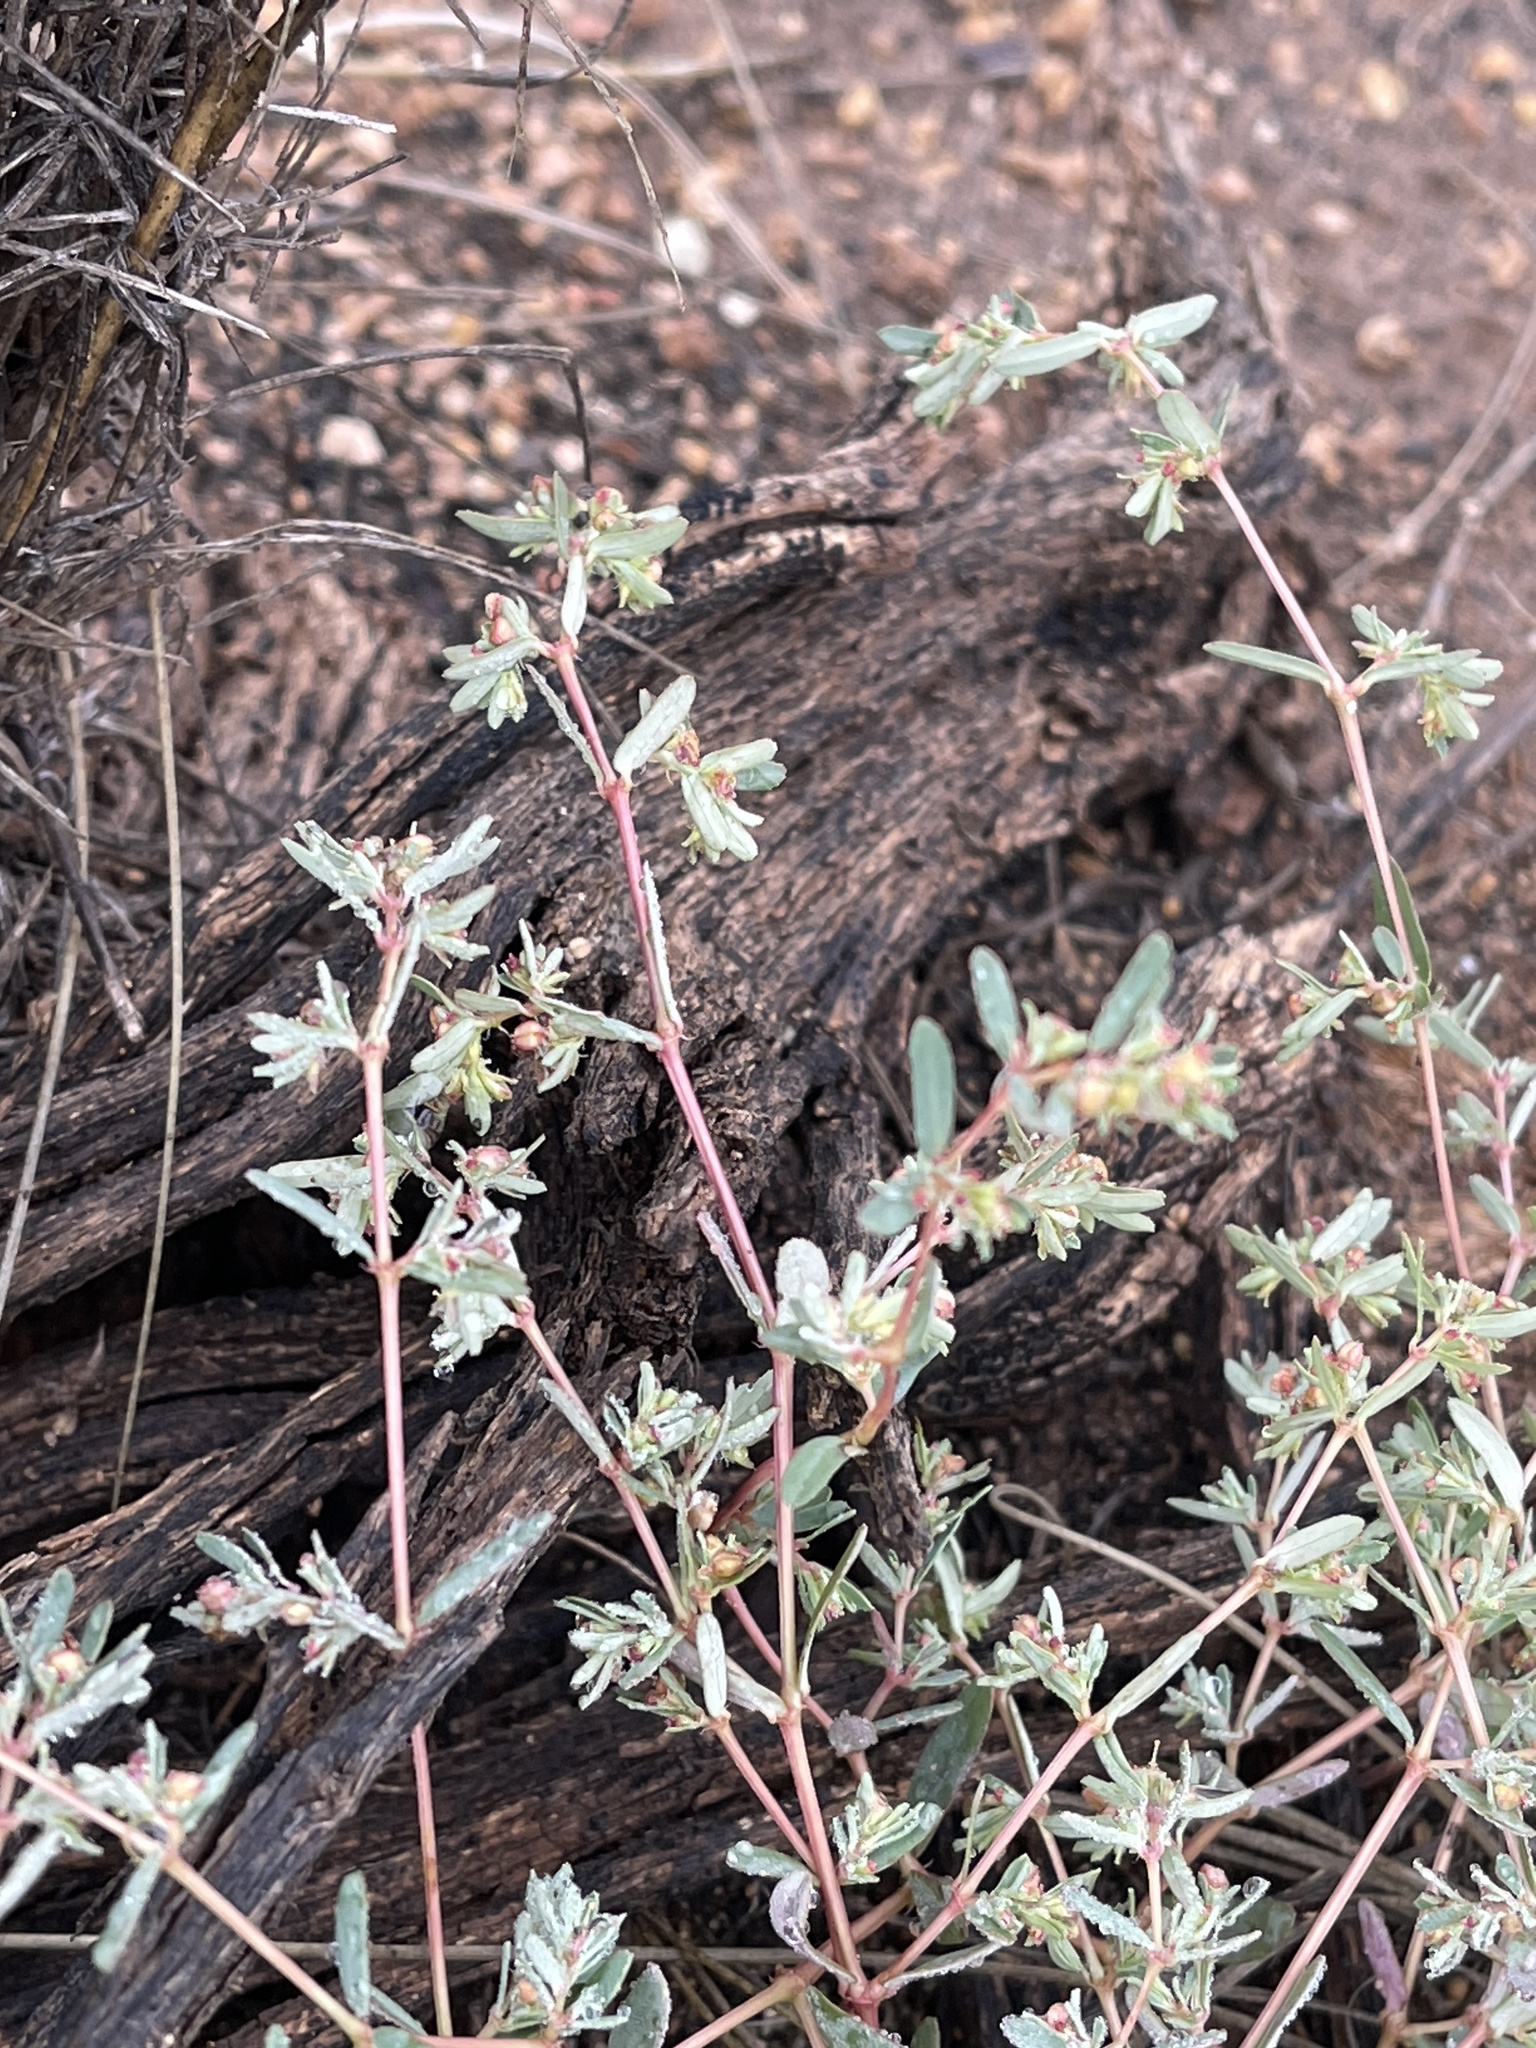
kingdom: Plantae
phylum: Tracheophyta
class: Magnoliopsida
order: Malpighiales
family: Euphorbiaceae
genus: Euphorbia
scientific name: Euphorbia serpillifolia
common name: Thyme-leaf spurge
